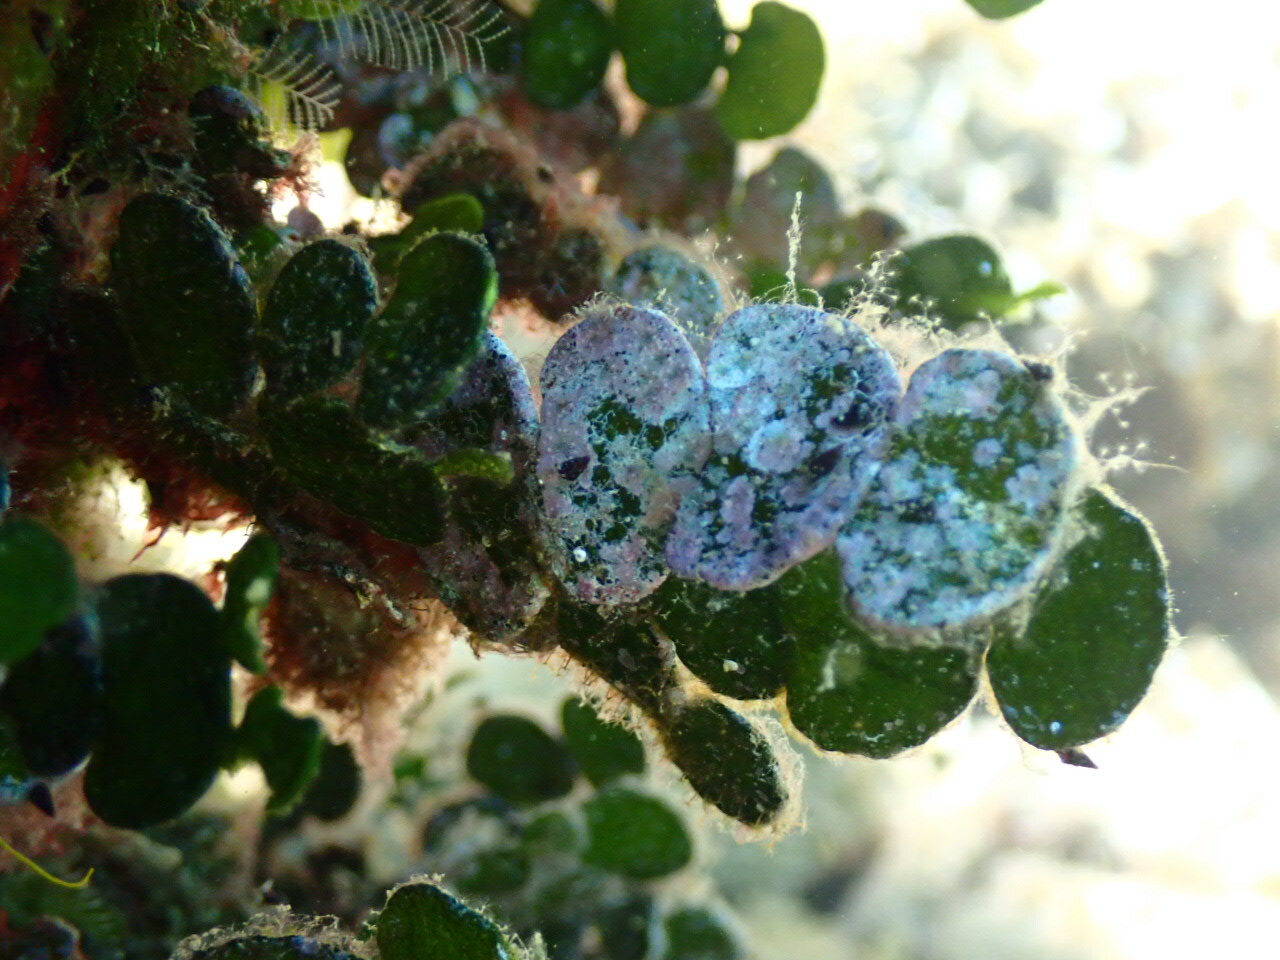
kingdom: Plantae
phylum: Chlorophyta
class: Ulvophyceae
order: Bryopsidales
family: Halimedaceae
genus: Halimeda
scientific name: Halimeda tuna
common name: Stalked lettuce leaf algae
